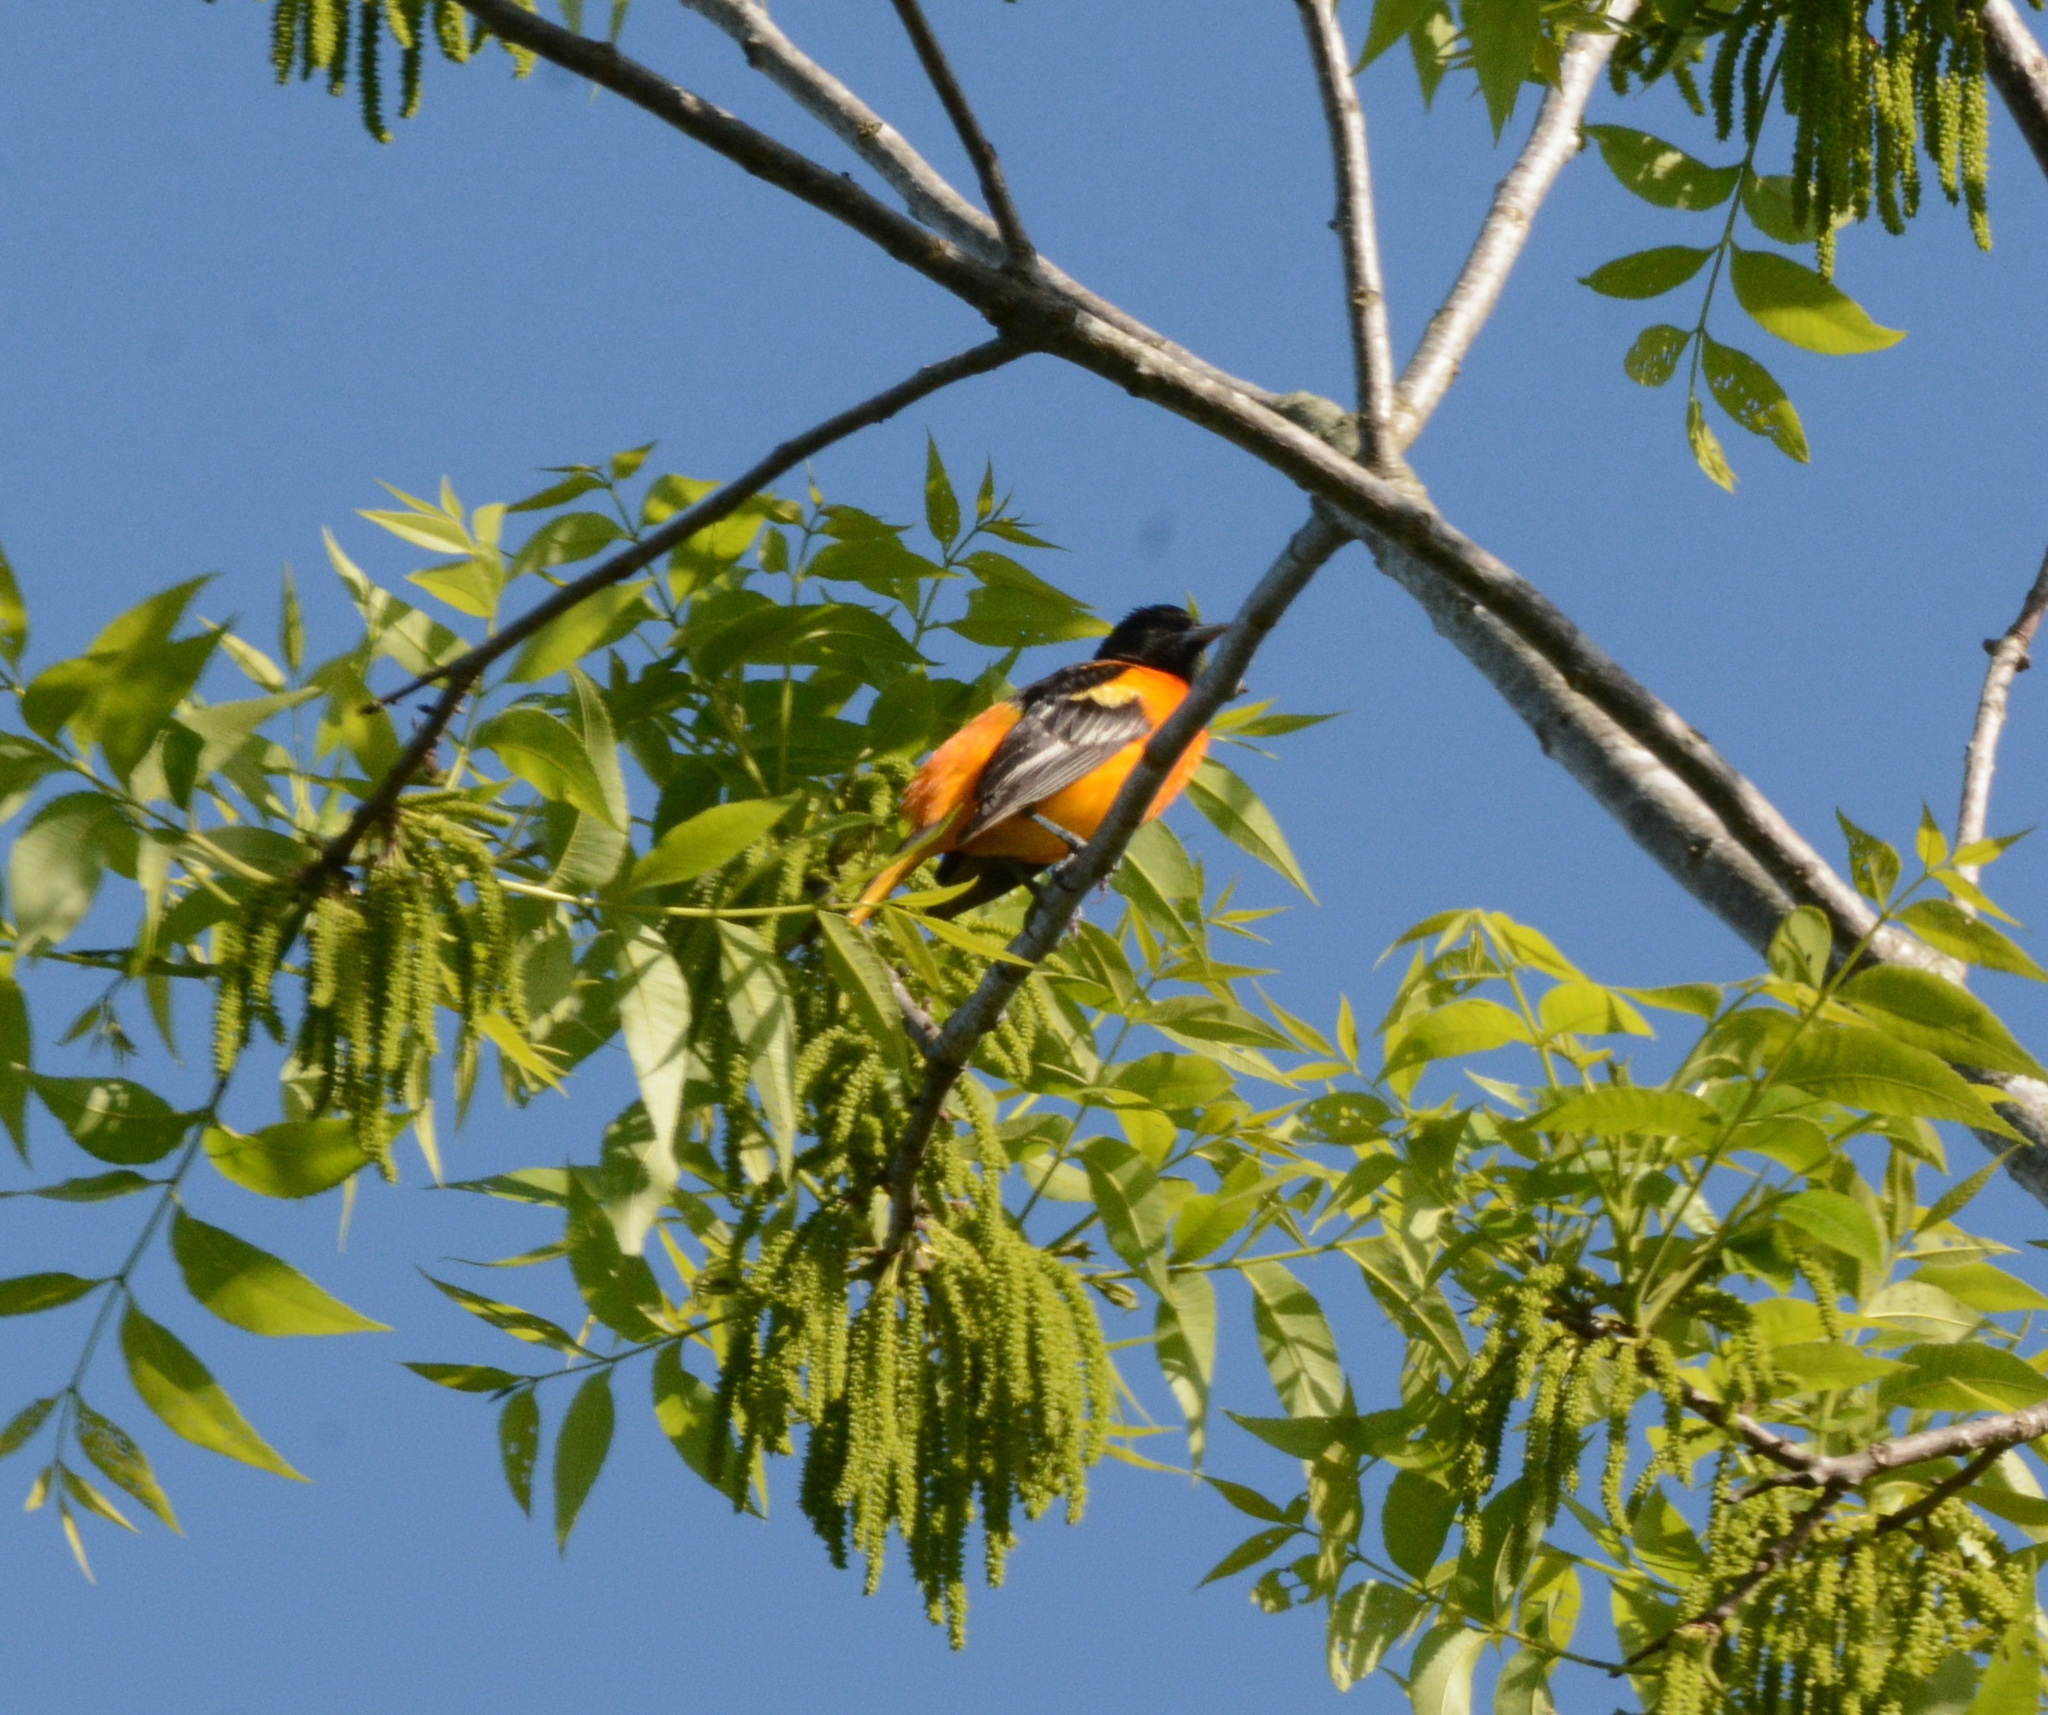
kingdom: Animalia
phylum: Chordata
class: Aves
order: Passeriformes
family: Icteridae
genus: Icterus
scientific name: Icterus galbula
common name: Baltimore oriole
